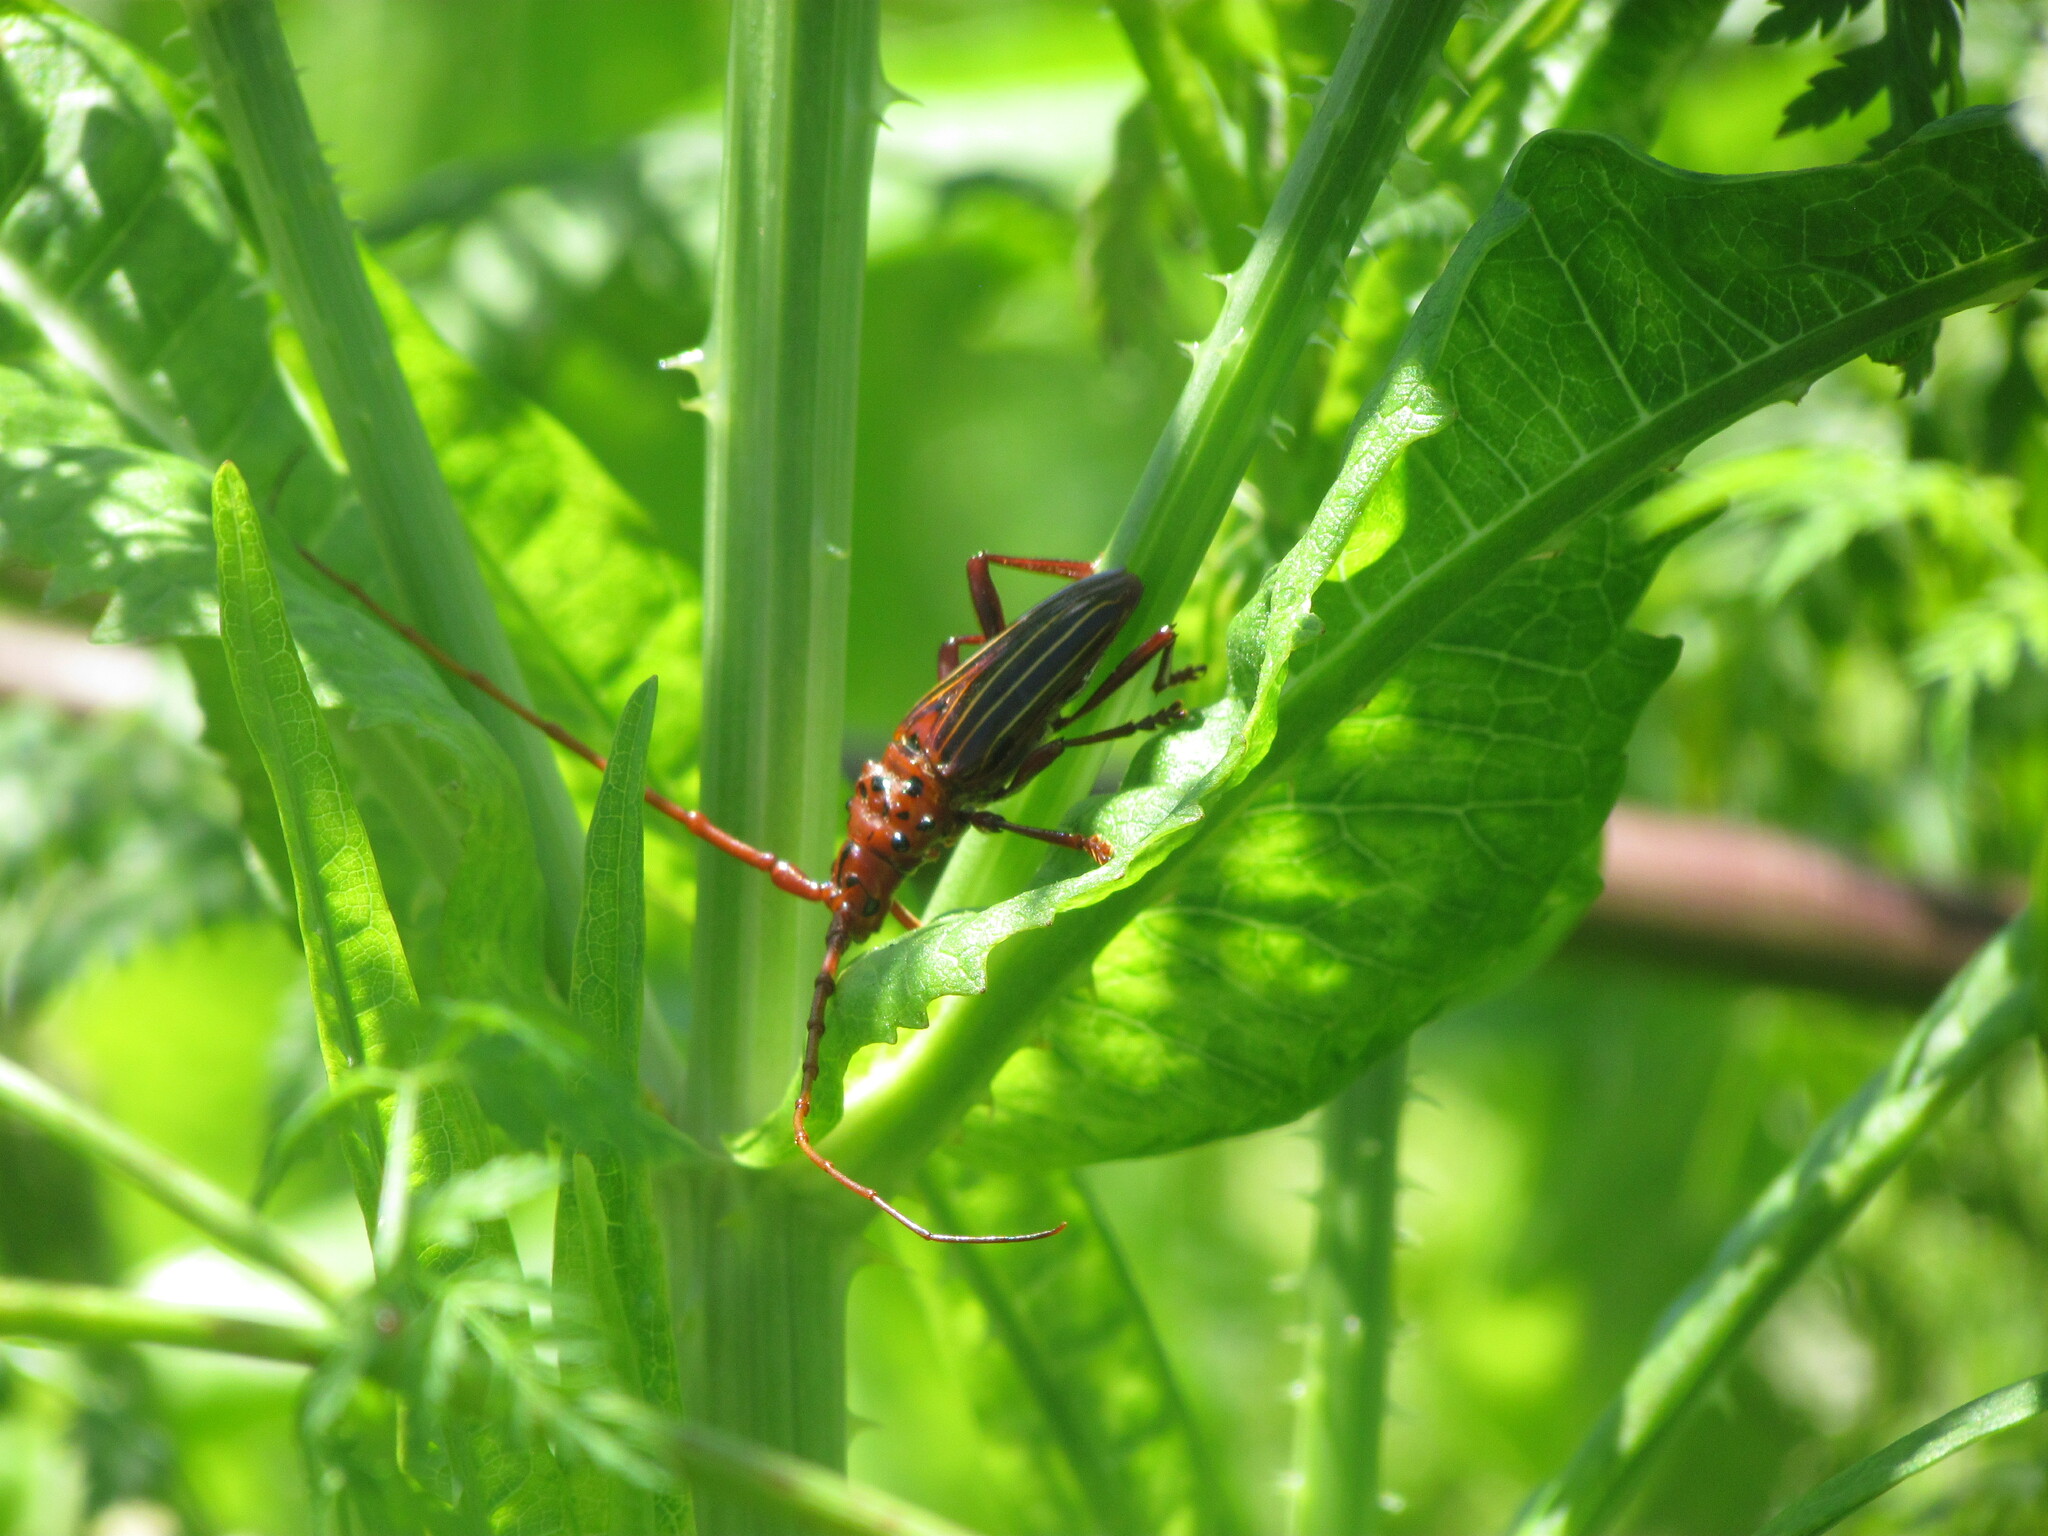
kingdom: Animalia
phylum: Arthropoda
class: Insecta
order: Coleoptera
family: Cerambycidae
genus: Chydarteres
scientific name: Chydarteres striatus
